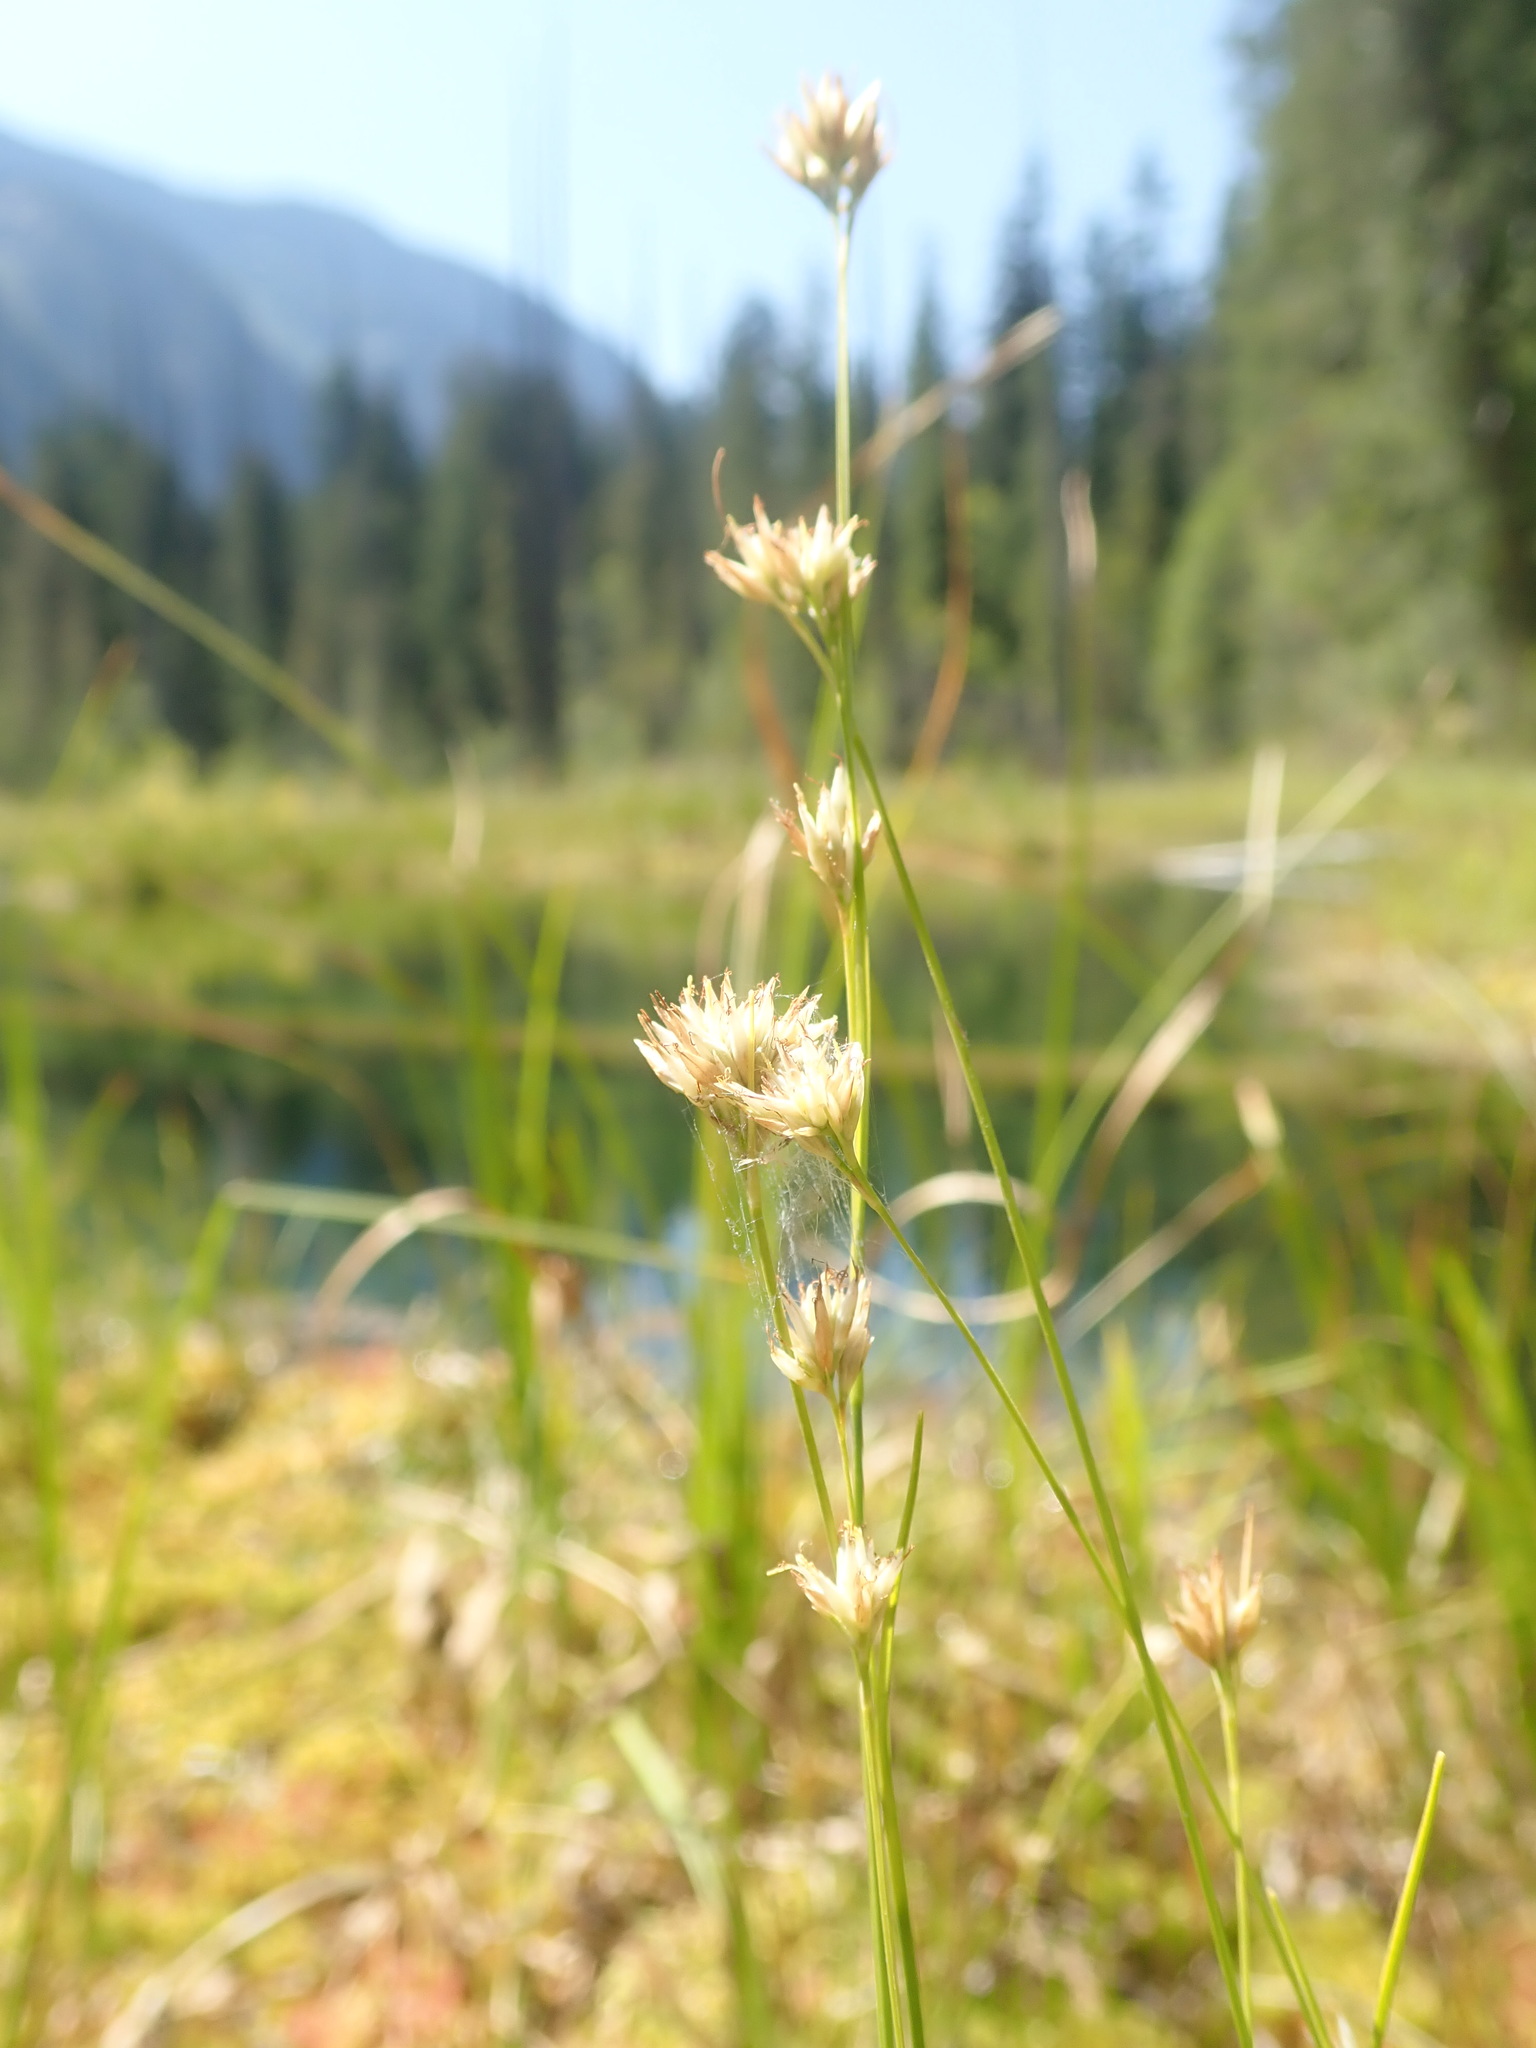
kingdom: Plantae
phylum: Tracheophyta
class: Liliopsida
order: Poales
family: Cyperaceae
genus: Rhynchospora
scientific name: Rhynchospora alba
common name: White beak-sedge
